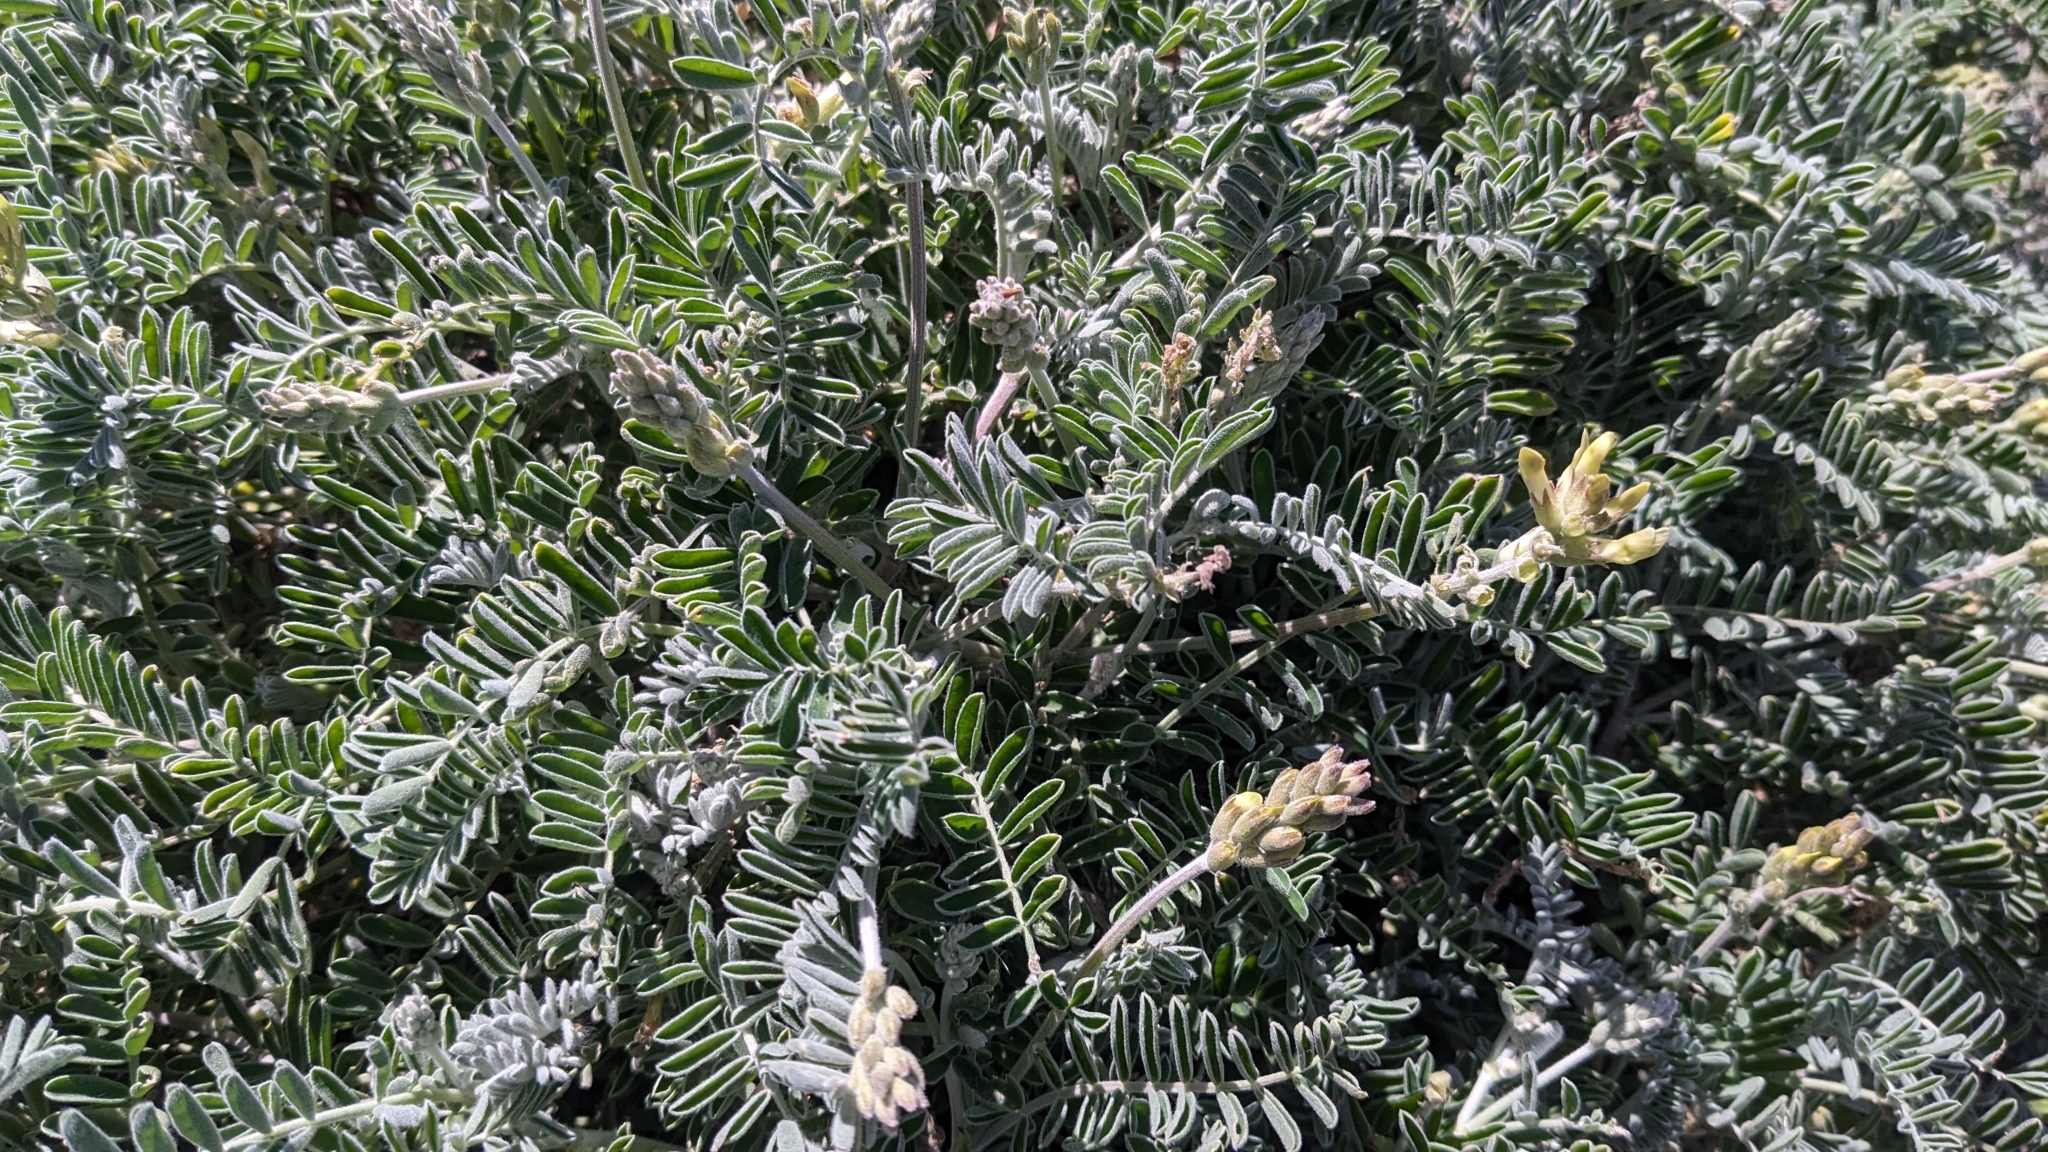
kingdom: Plantae
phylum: Tracheophyta
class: Magnoliopsida
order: Fabales
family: Fabaceae
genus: Astragalus
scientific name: Astragalus miguelensis
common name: San miguel milk-vetch
